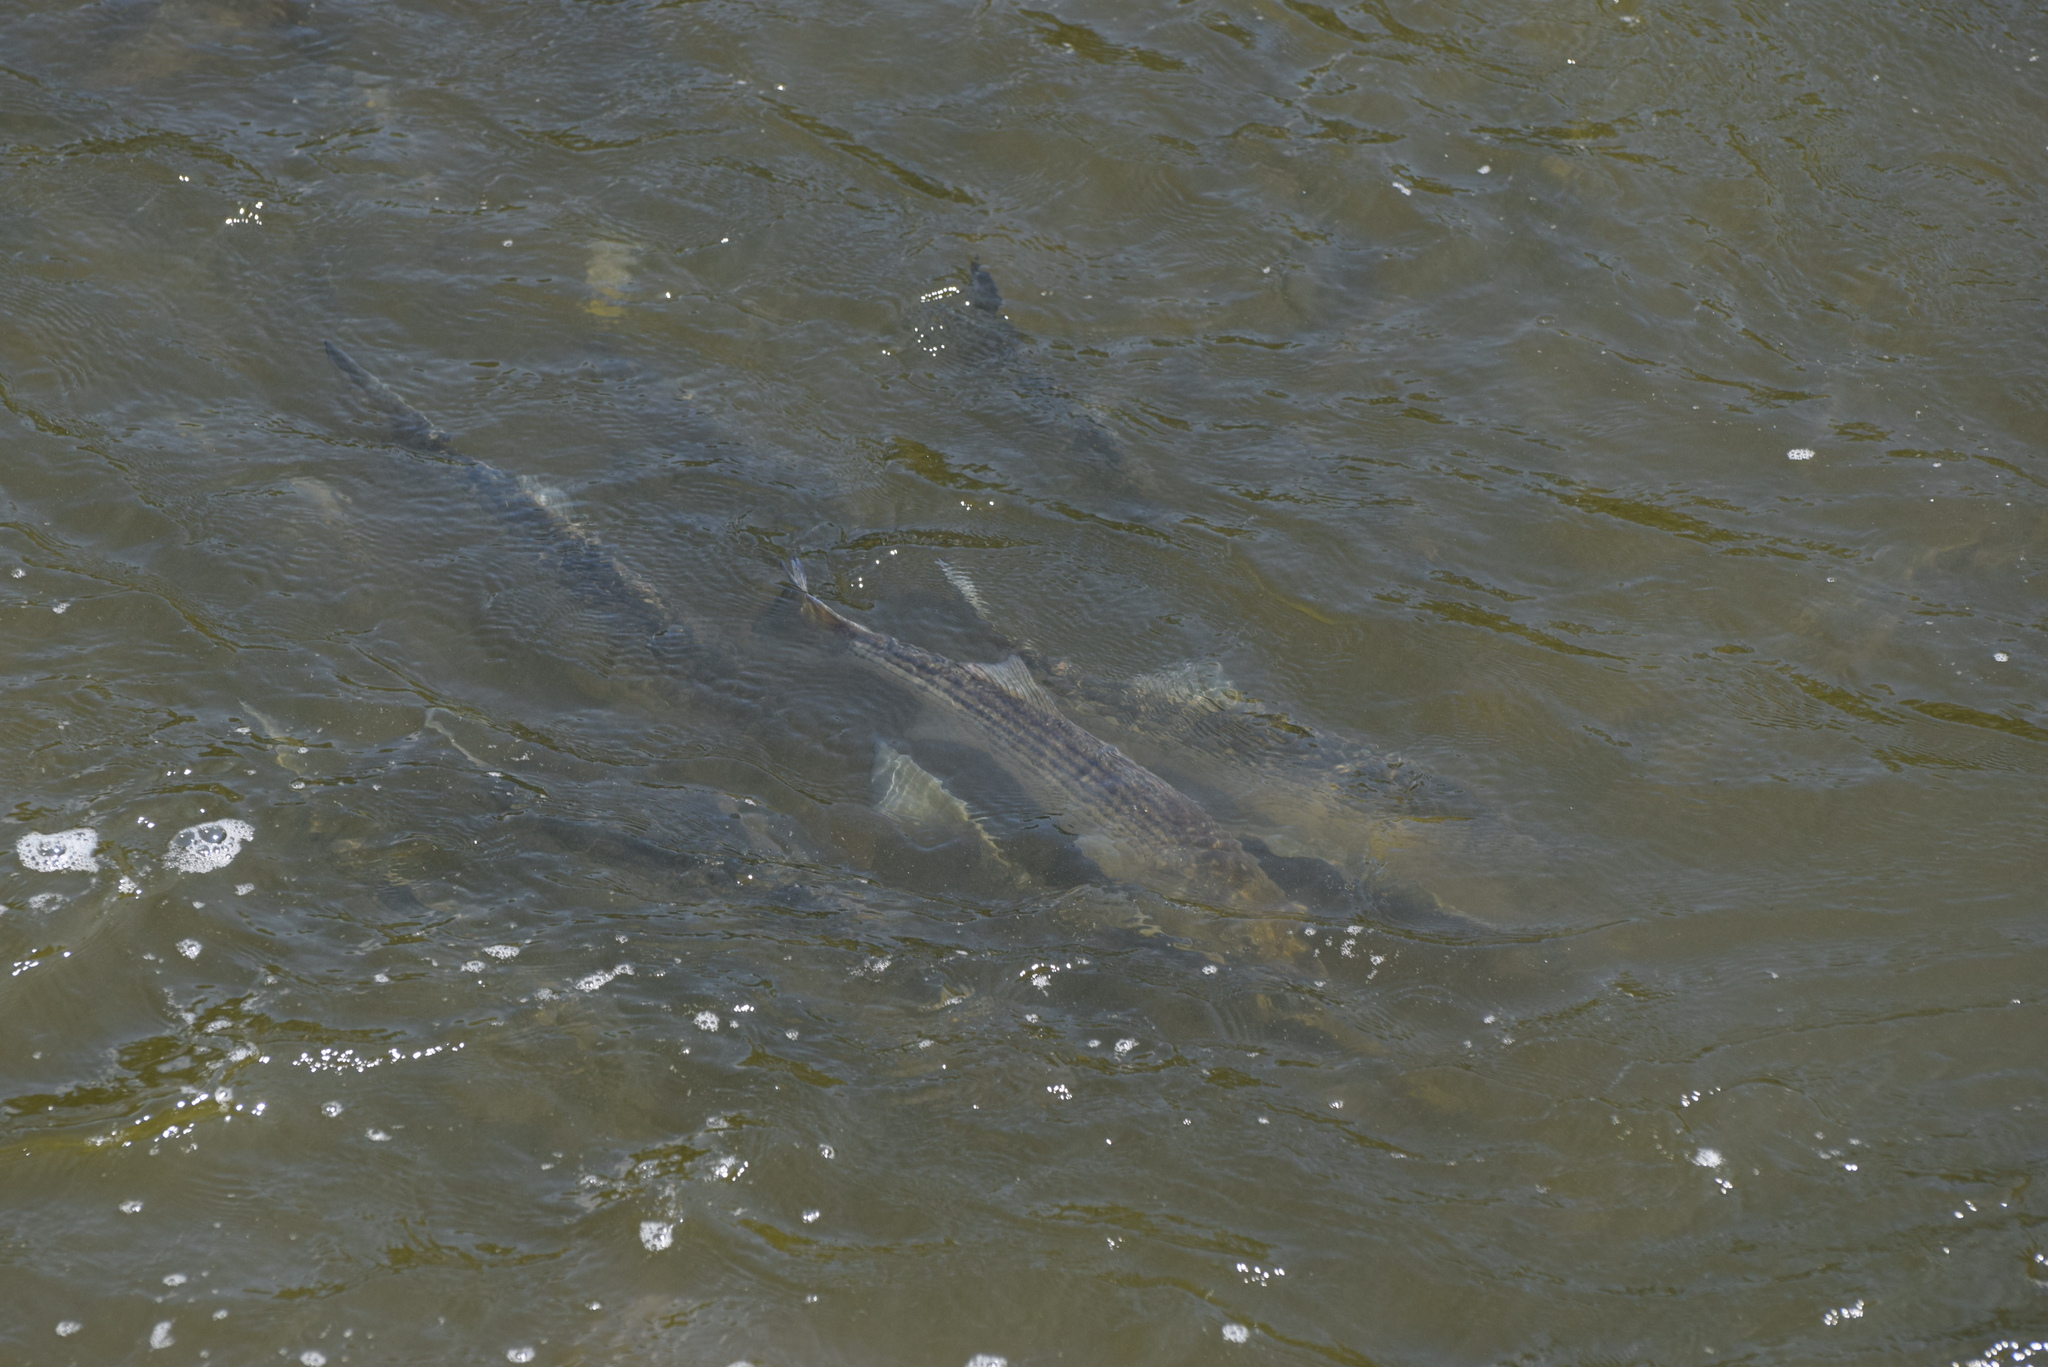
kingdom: Animalia
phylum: Chordata
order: Perciformes
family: Moronidae
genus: Morone
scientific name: Morone saxatilis
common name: Striped bass
